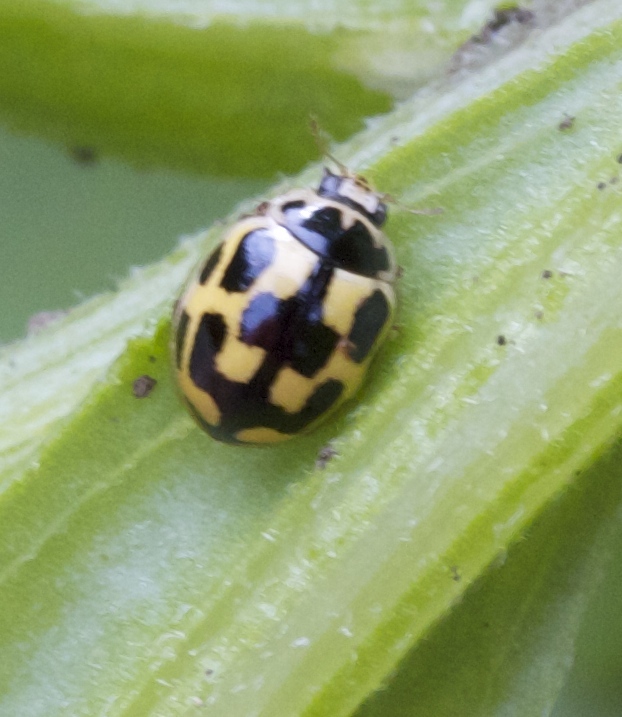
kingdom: Animalia
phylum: Arthropoda
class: Insecta
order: Coleoptera
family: Coccinellidae
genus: Propylaea
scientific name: Propylaea quatuordecimpunctata
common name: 14-spotted ladybird beetle
